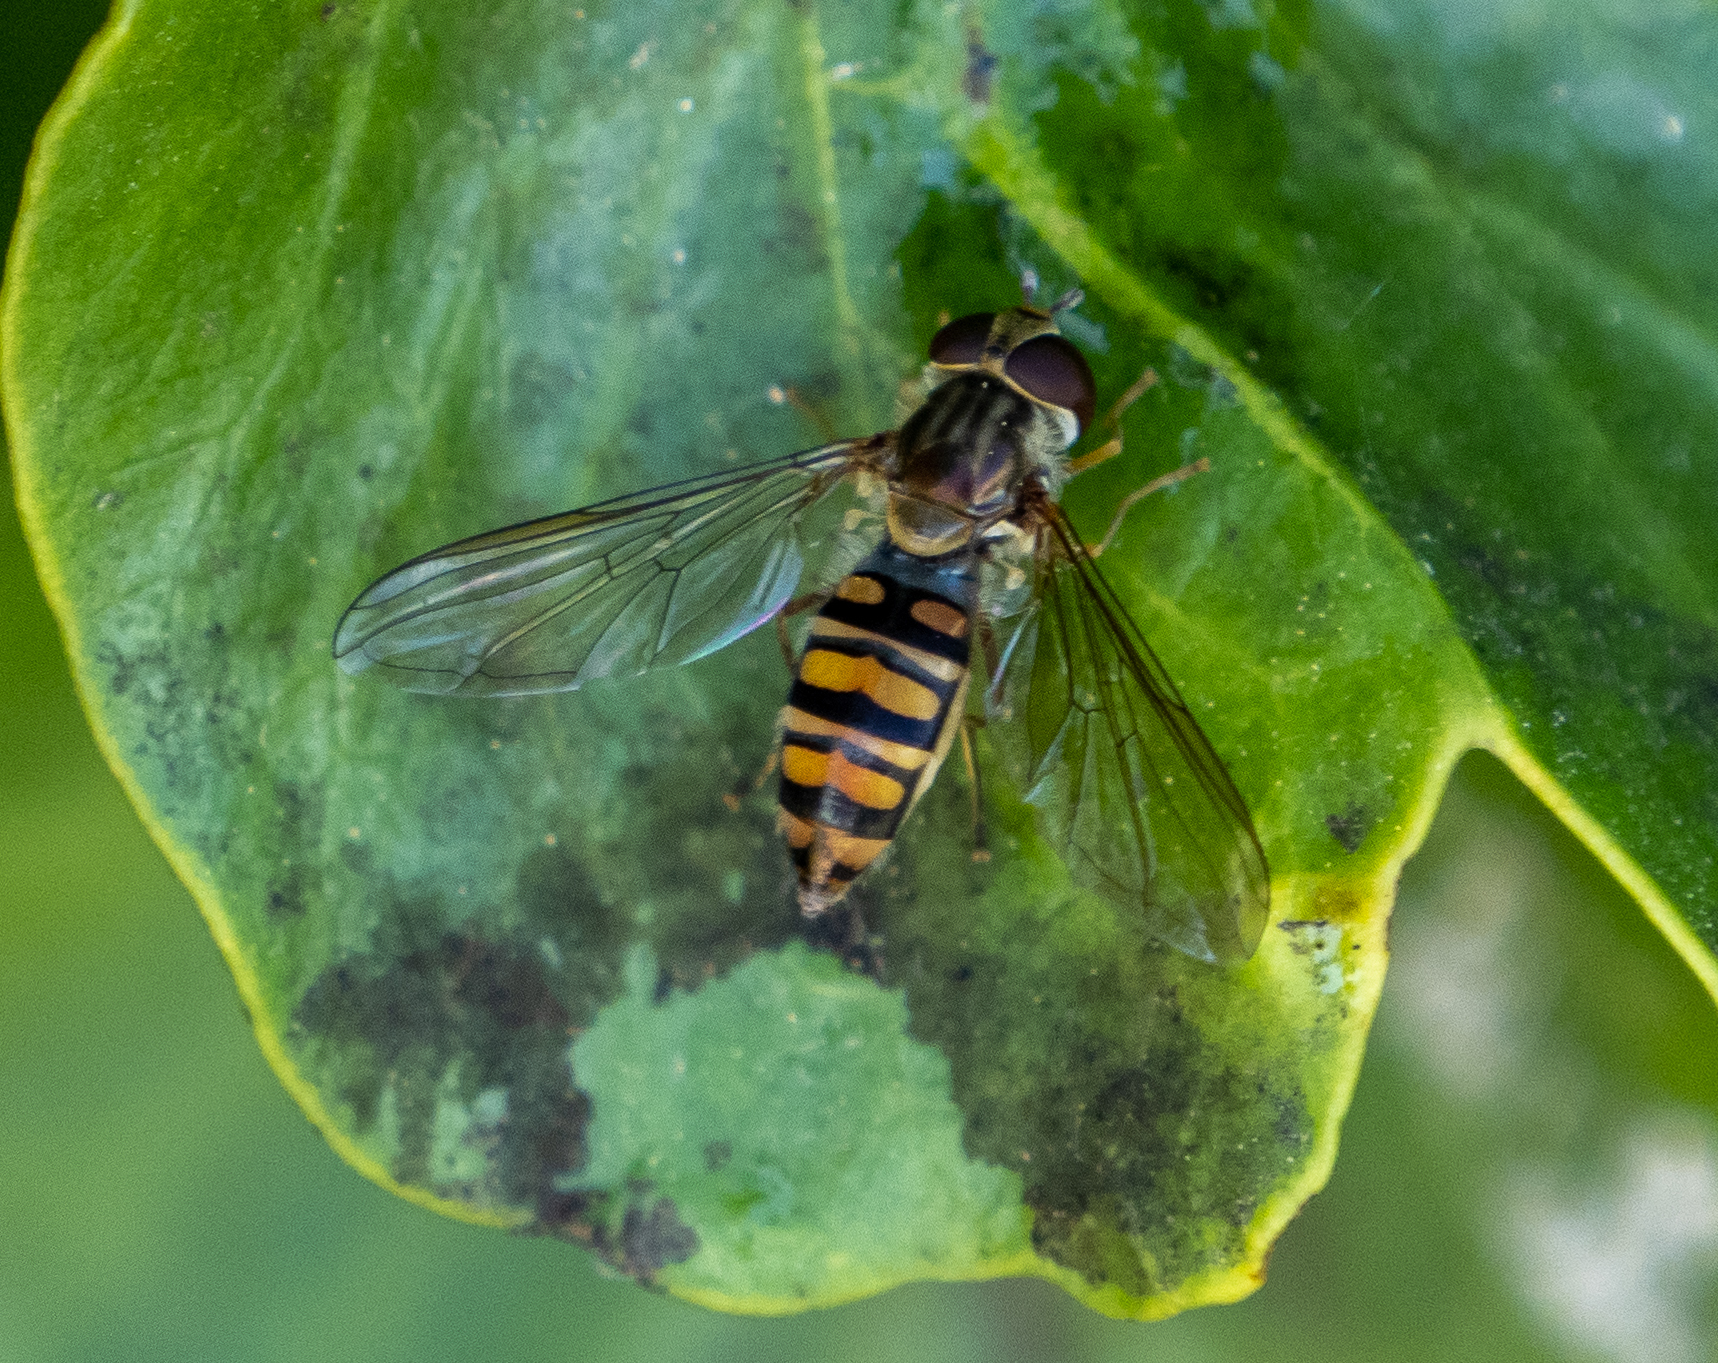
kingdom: Animalia
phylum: Arthropoda
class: Insecta
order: Diptera
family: Syrphidae
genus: Episyrphus
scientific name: Episyrphus balteatus
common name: Marmalade hoverfly
